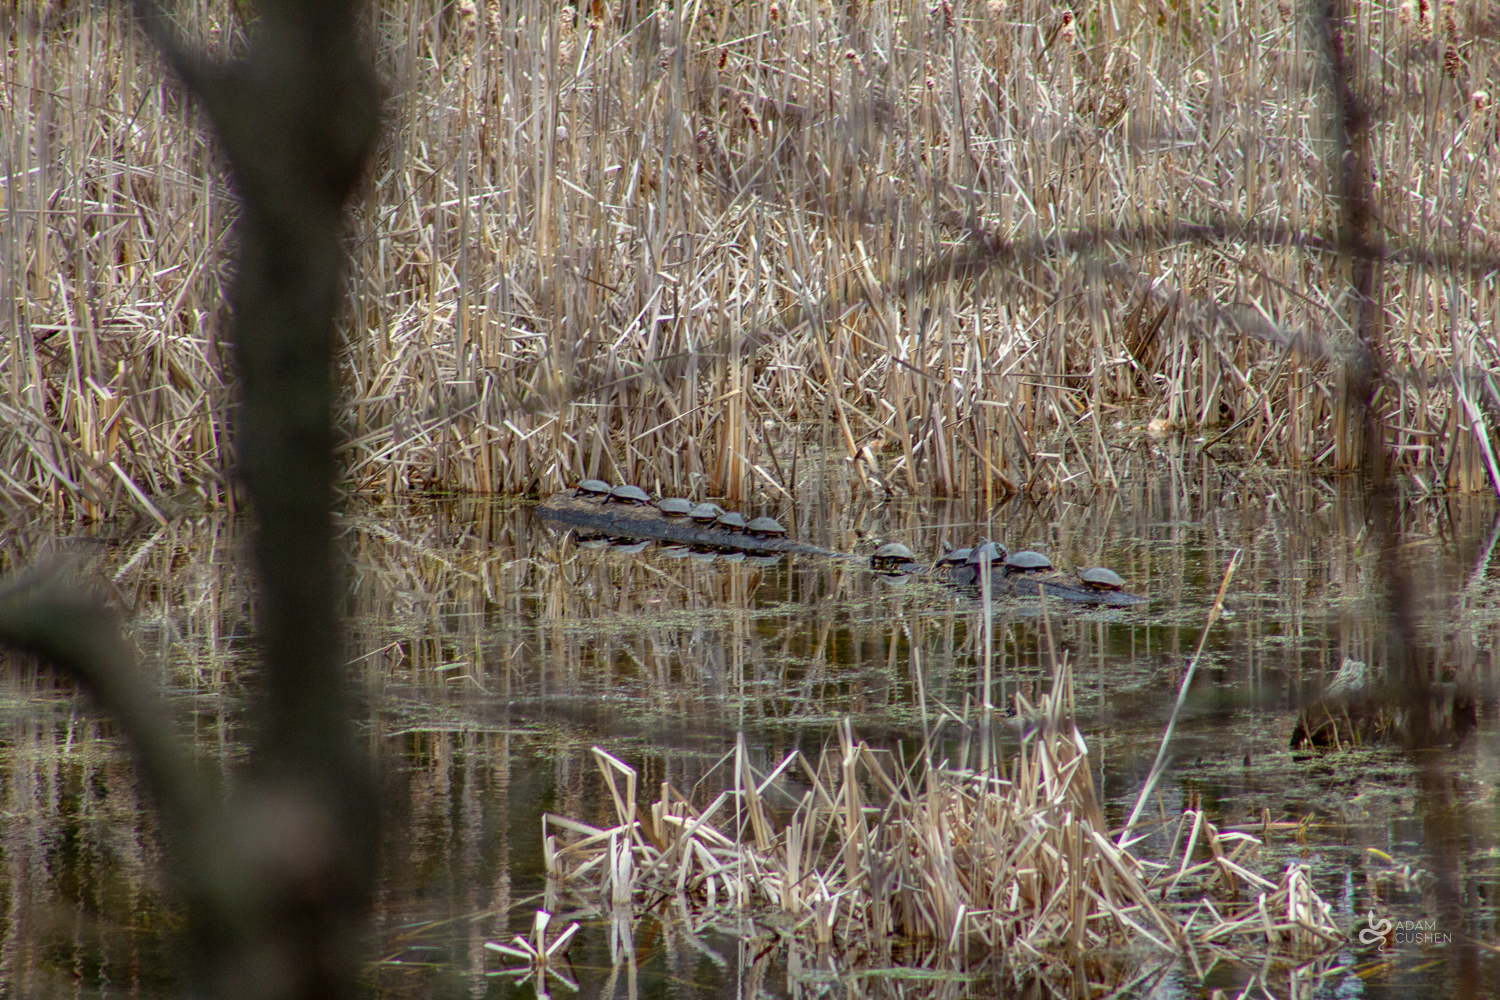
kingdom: Animalia
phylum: Chordata
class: Testudines
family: Emydidae
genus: Chrysemys
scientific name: Chrysemys picta
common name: Painted turtle
